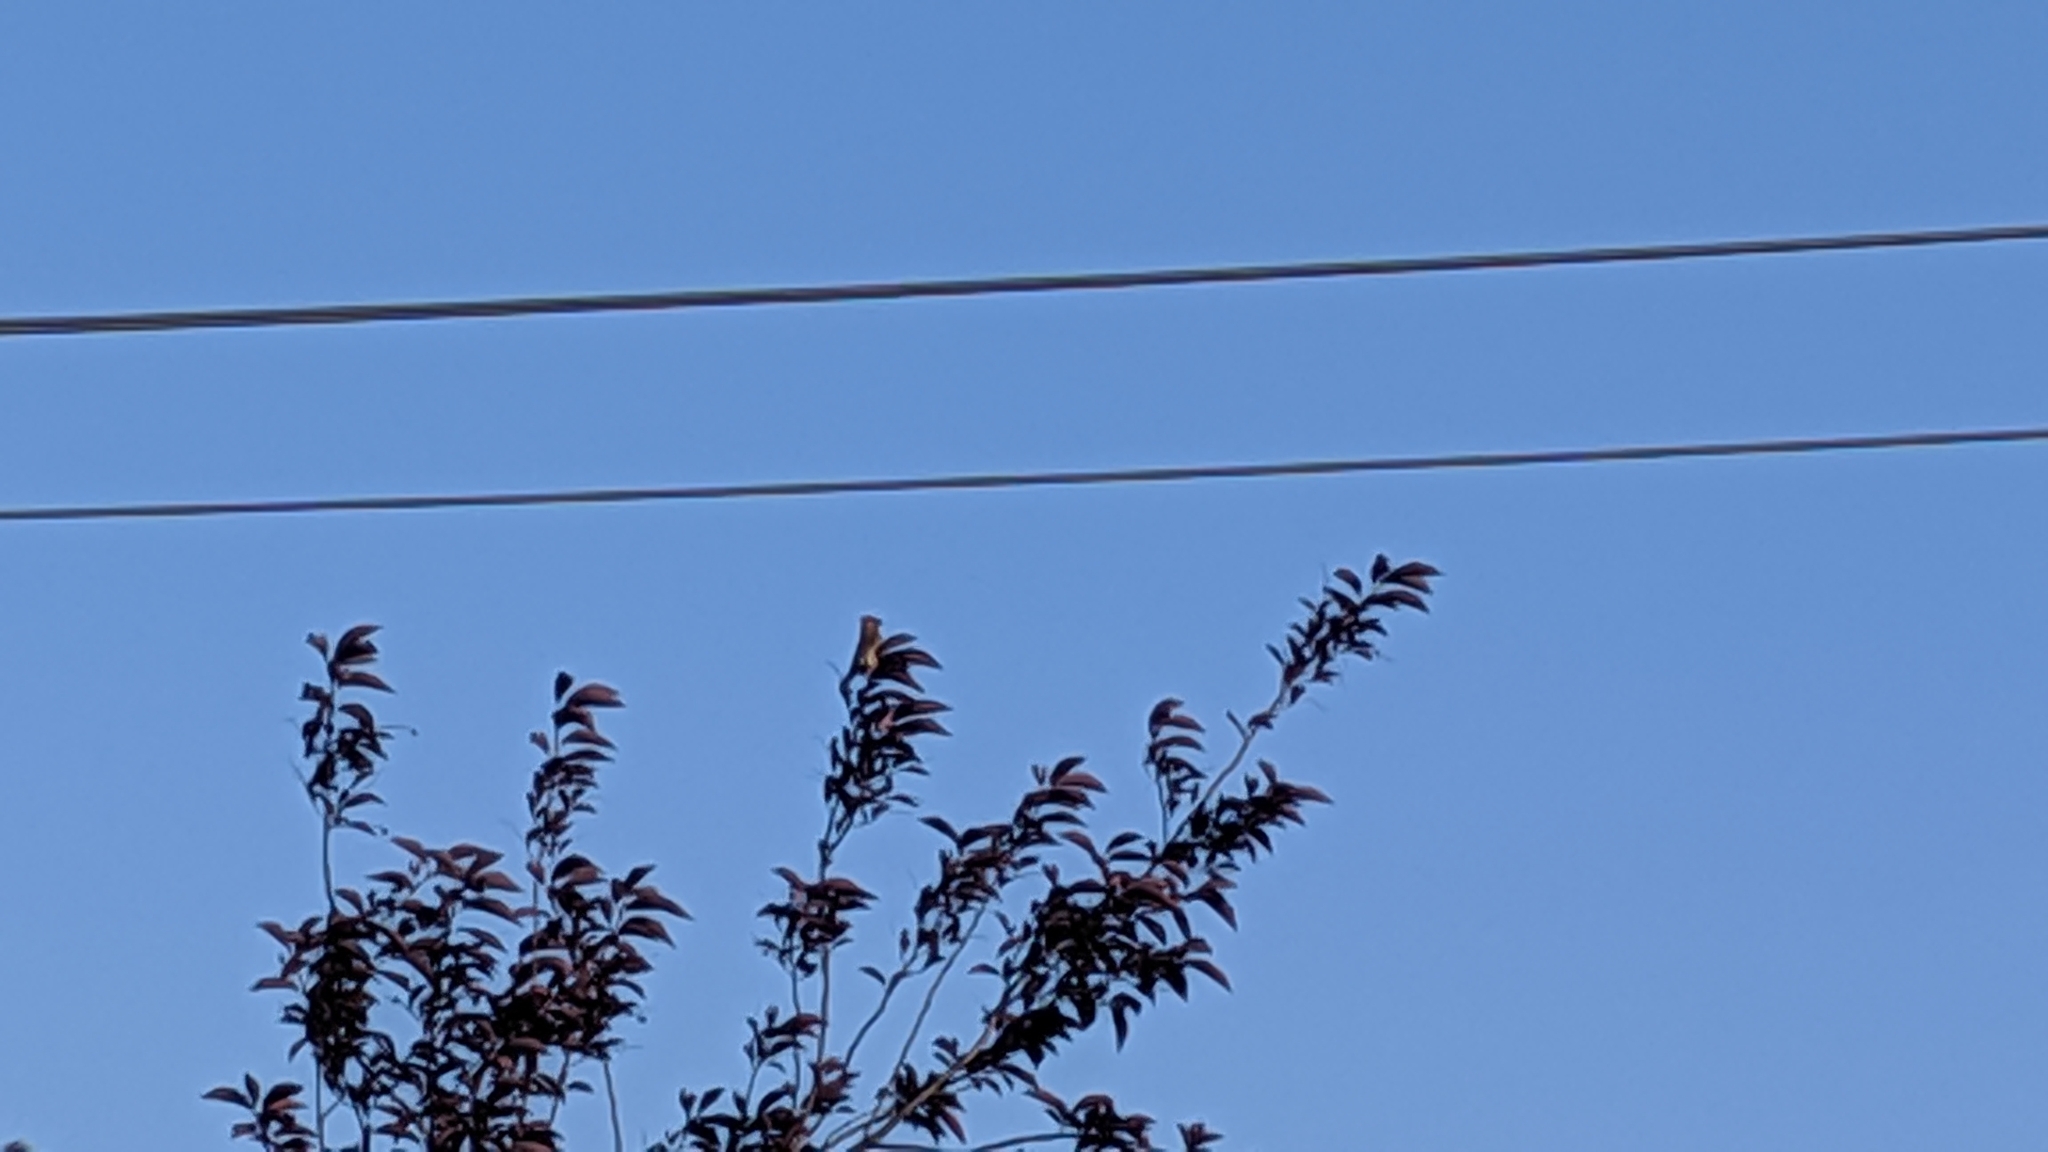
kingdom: Animalia
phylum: Chordata
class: Aves
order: Passeriformes
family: Bombycillidae
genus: Bombycilla
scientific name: Bombycilla cedrorum
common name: Cedar waxwing
